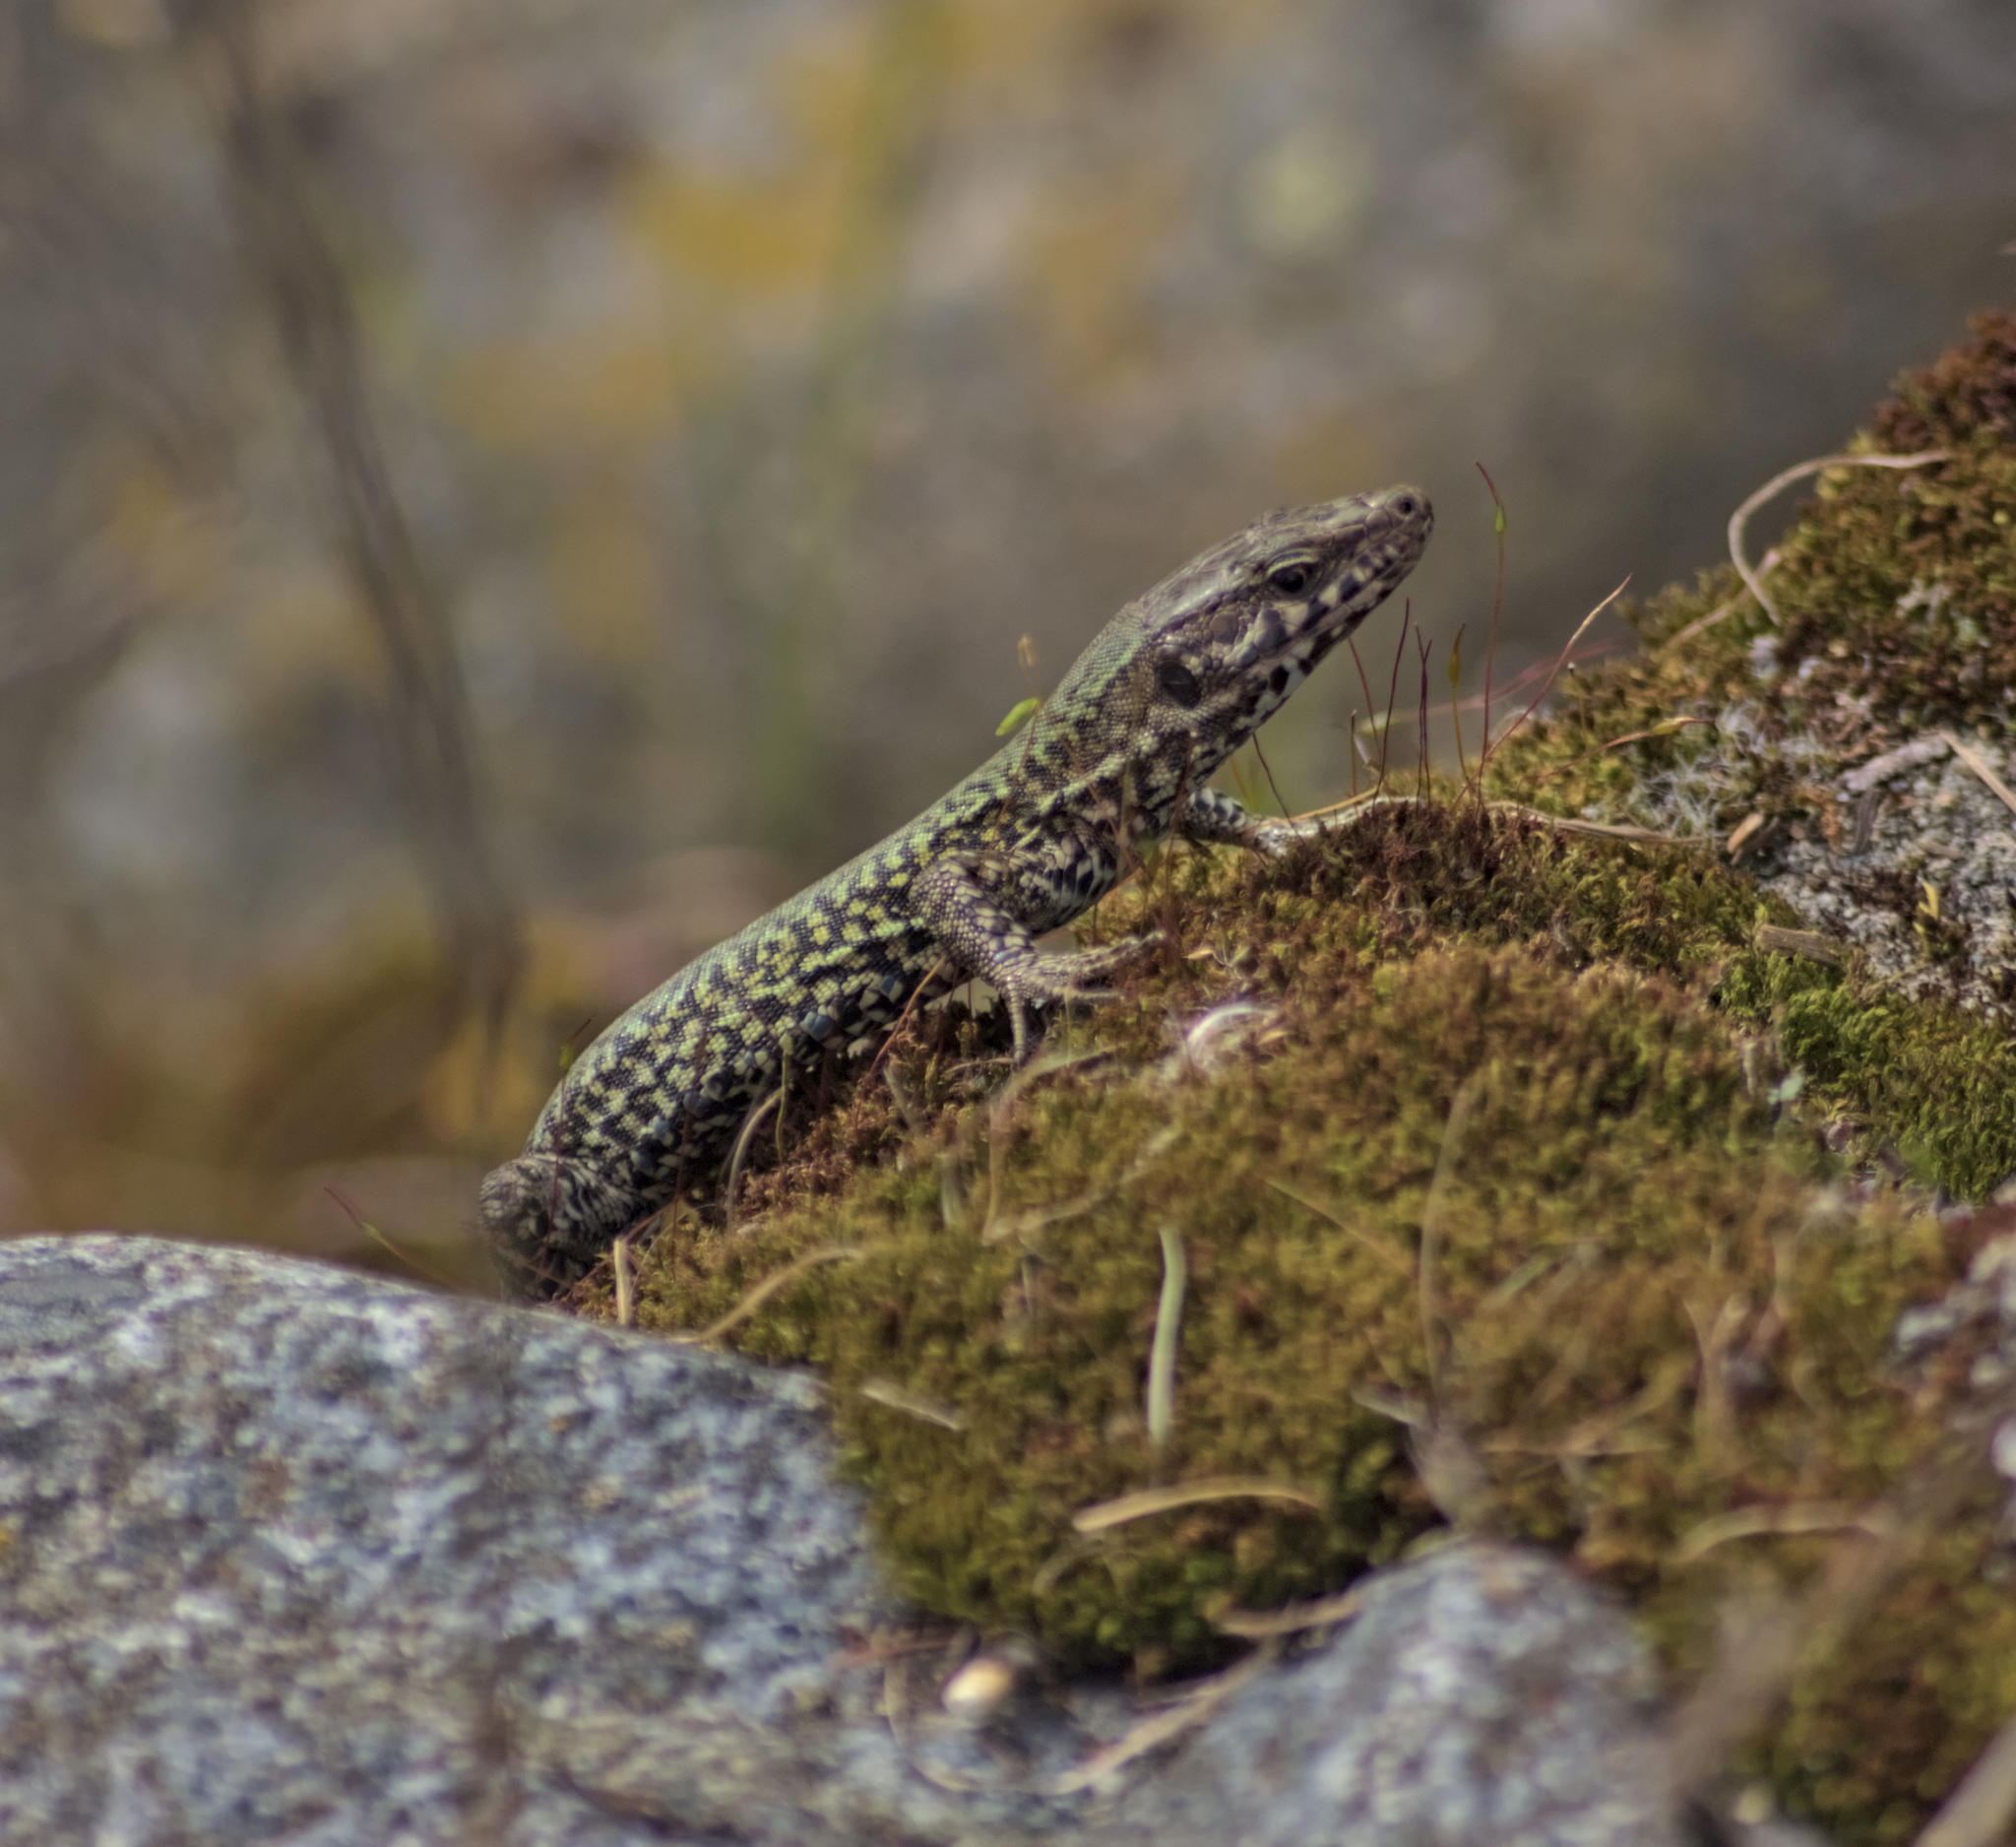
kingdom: Animalia
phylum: Chordata
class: Squamata
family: Lacertidae
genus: Podarcis
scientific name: Podarcis muralis
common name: Common wall lizard
